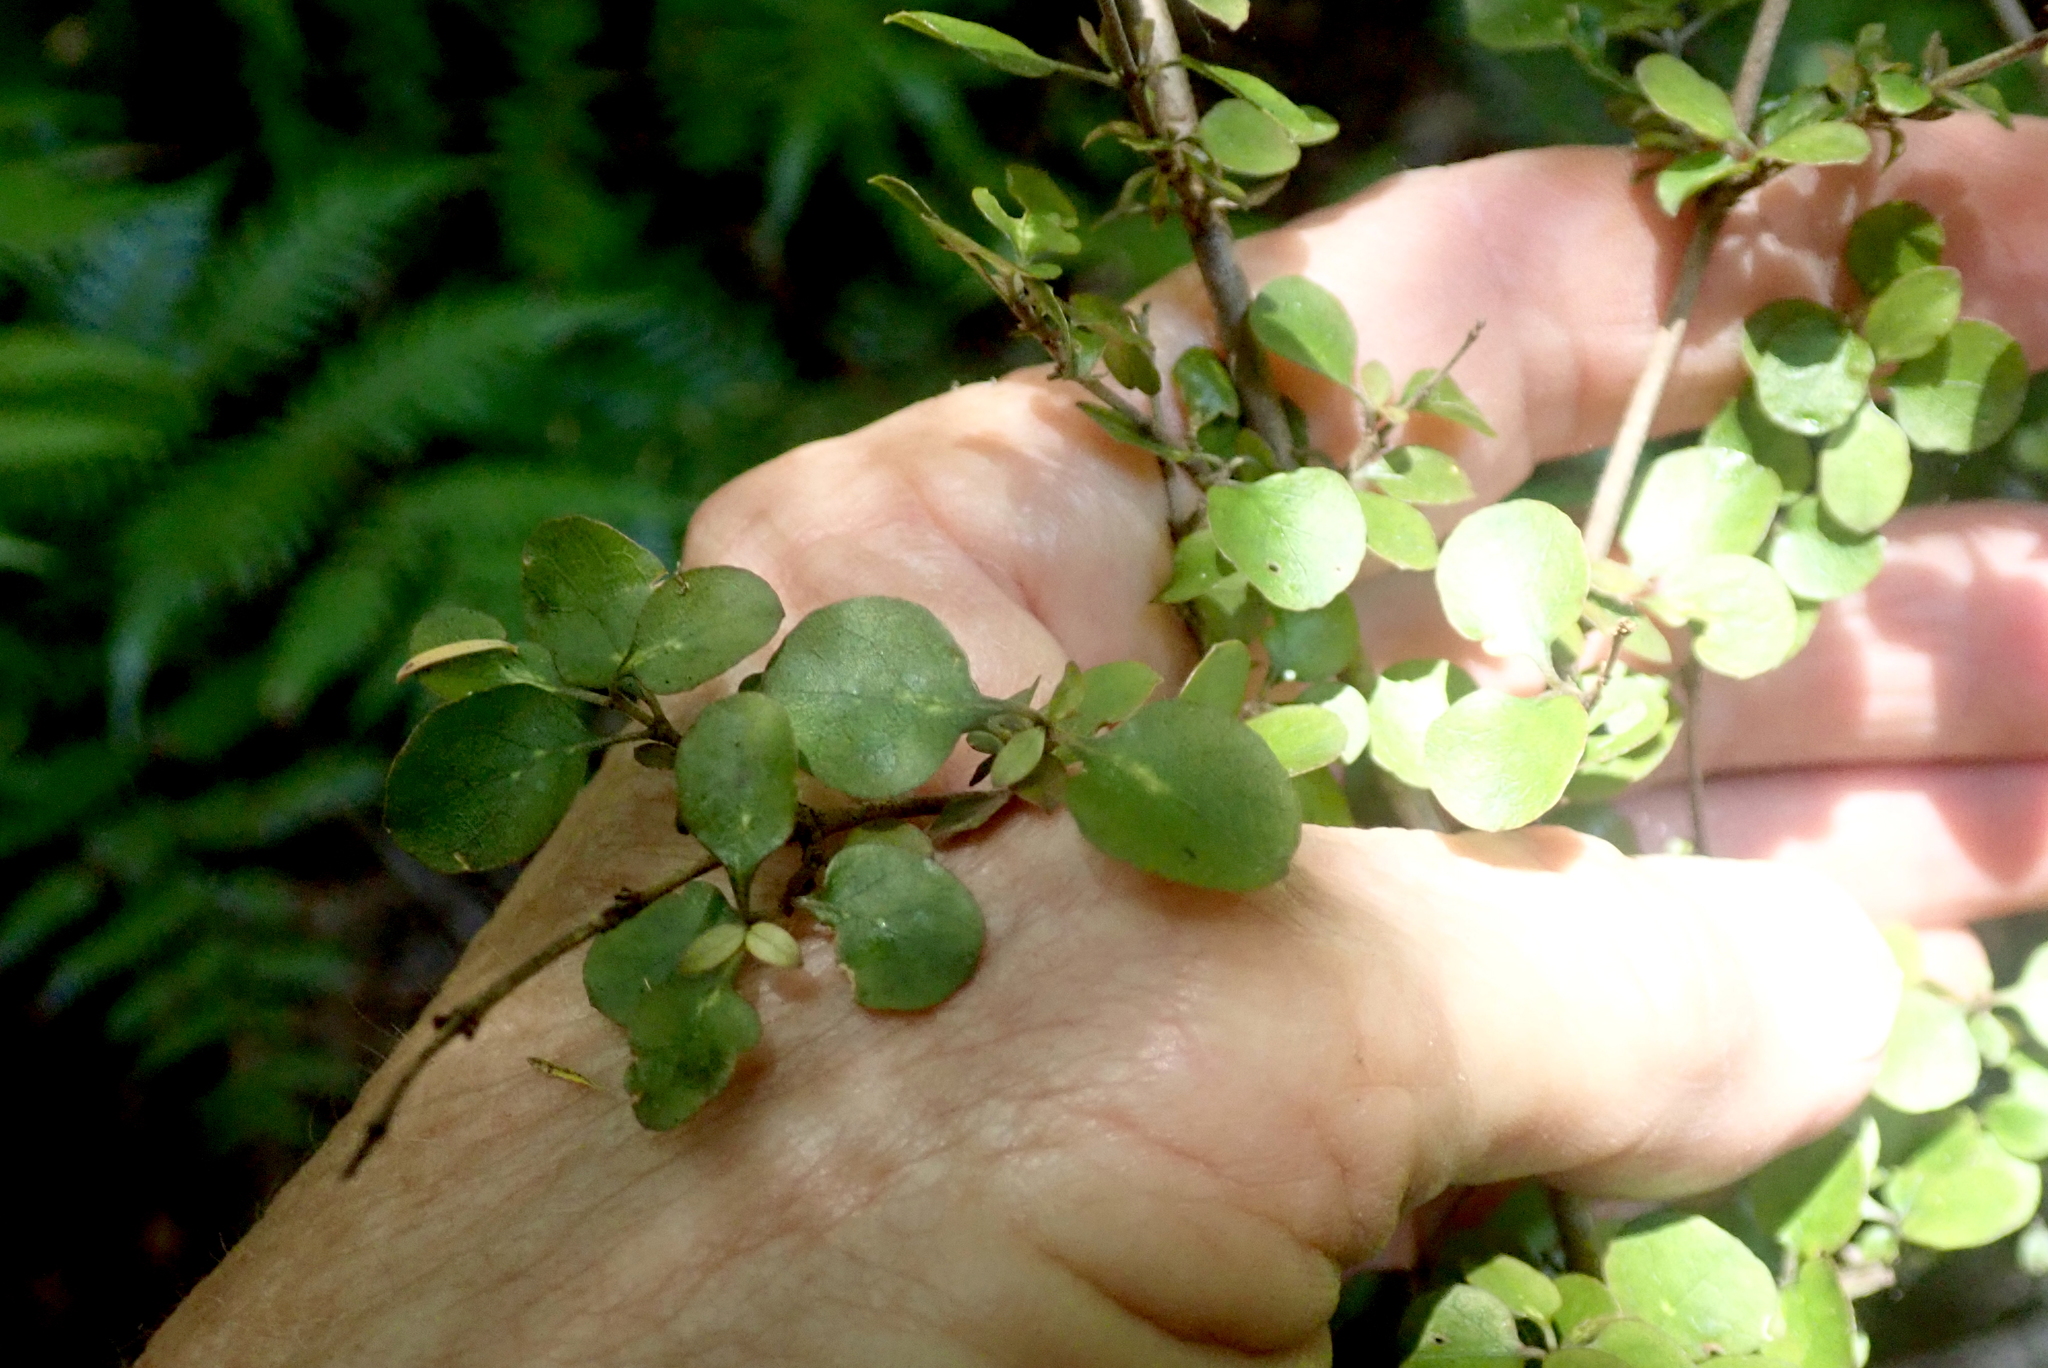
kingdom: Plantae
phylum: Tracheophyta
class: Magnoliopsida
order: Gentianales
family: Rubiaceae
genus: Coprosma
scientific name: Coprosma rhamnoides
